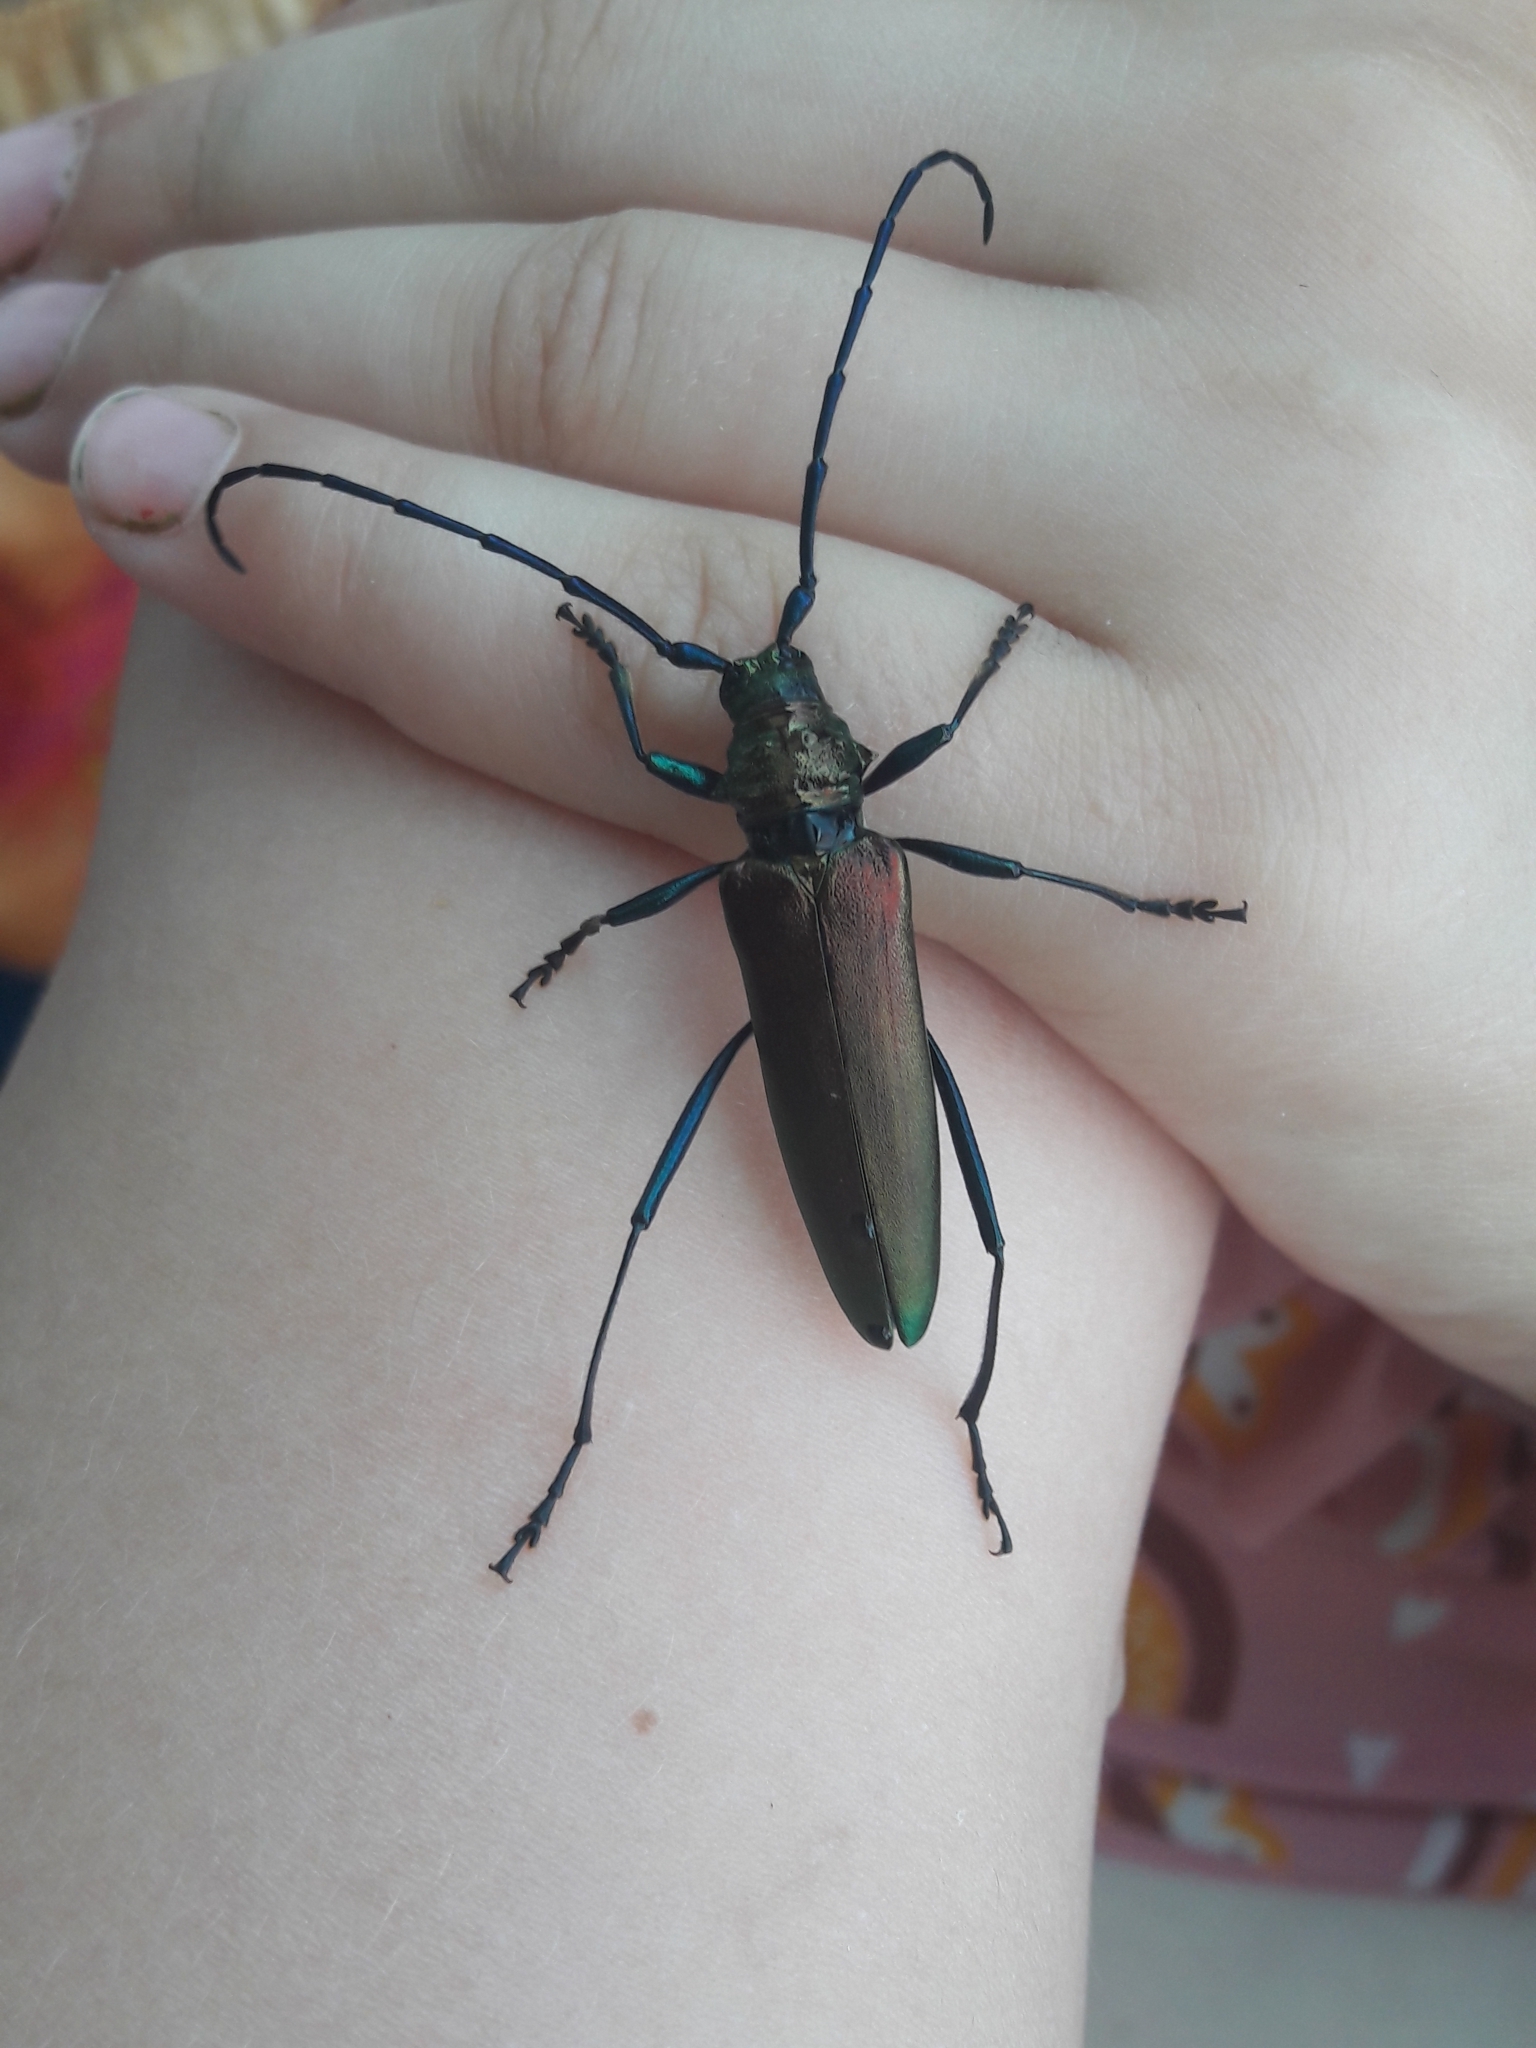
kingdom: Animalia
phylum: Arthropoda
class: Insecta
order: Coleoptera
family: Cerambycidae
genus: Aromia
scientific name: Aromia moschata
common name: Musk beetle
